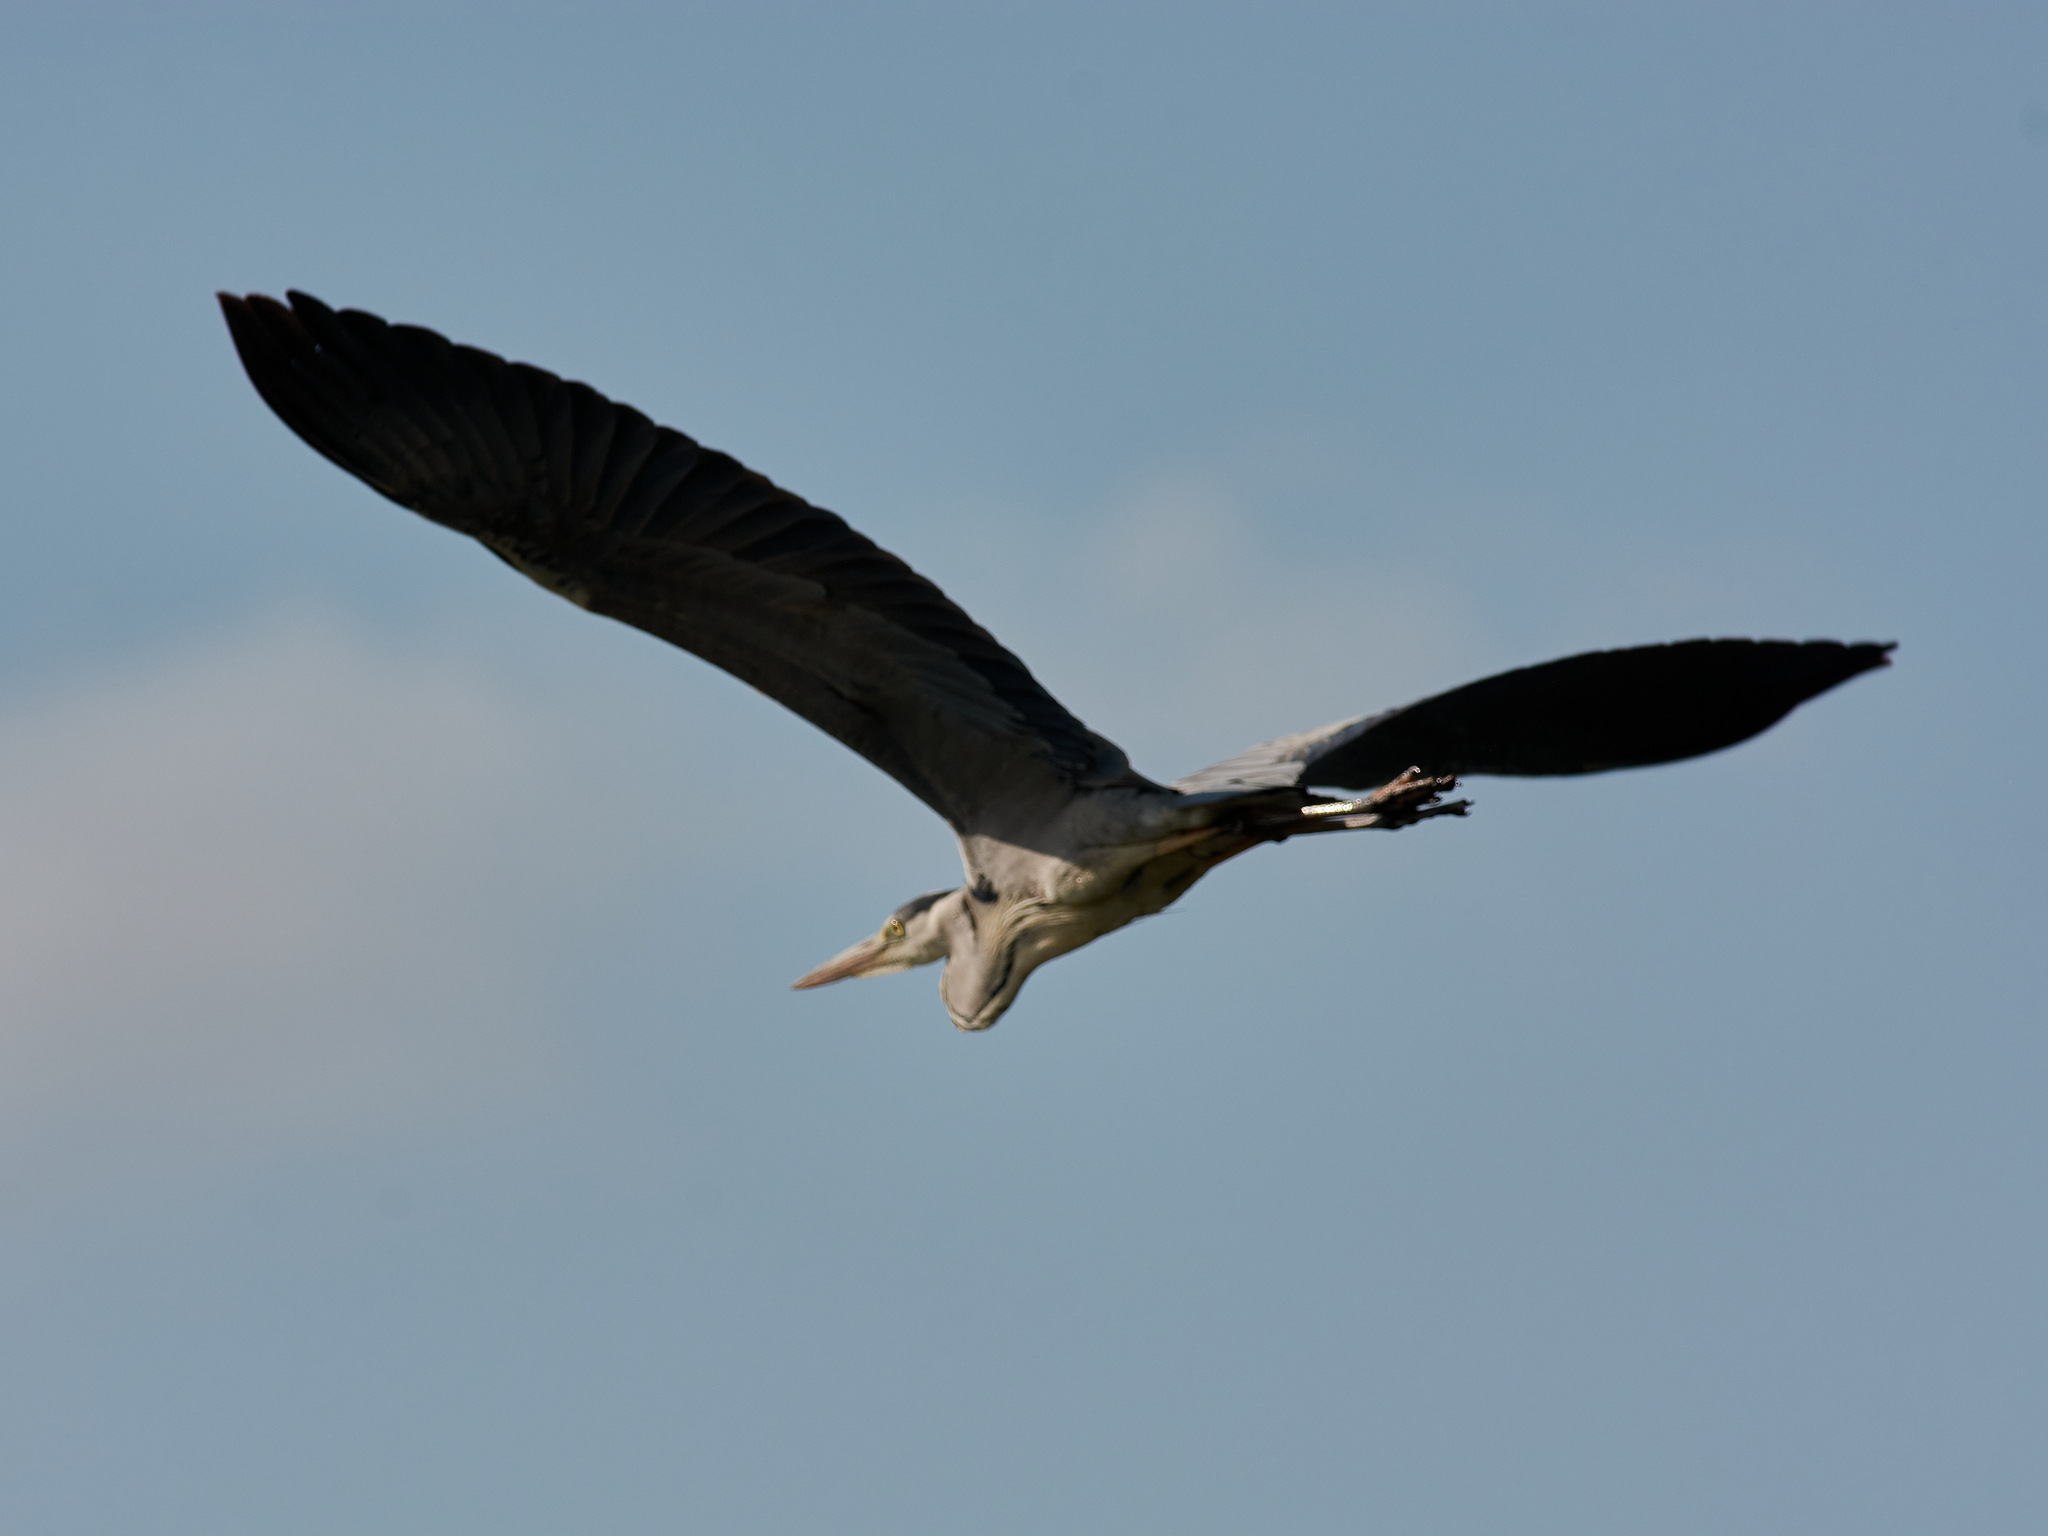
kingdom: Animalia
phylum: Chordata
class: Aves
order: Pelecaniformes
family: Ardeidae
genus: Ardea
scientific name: Ardea cinerea
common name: Grey heron
